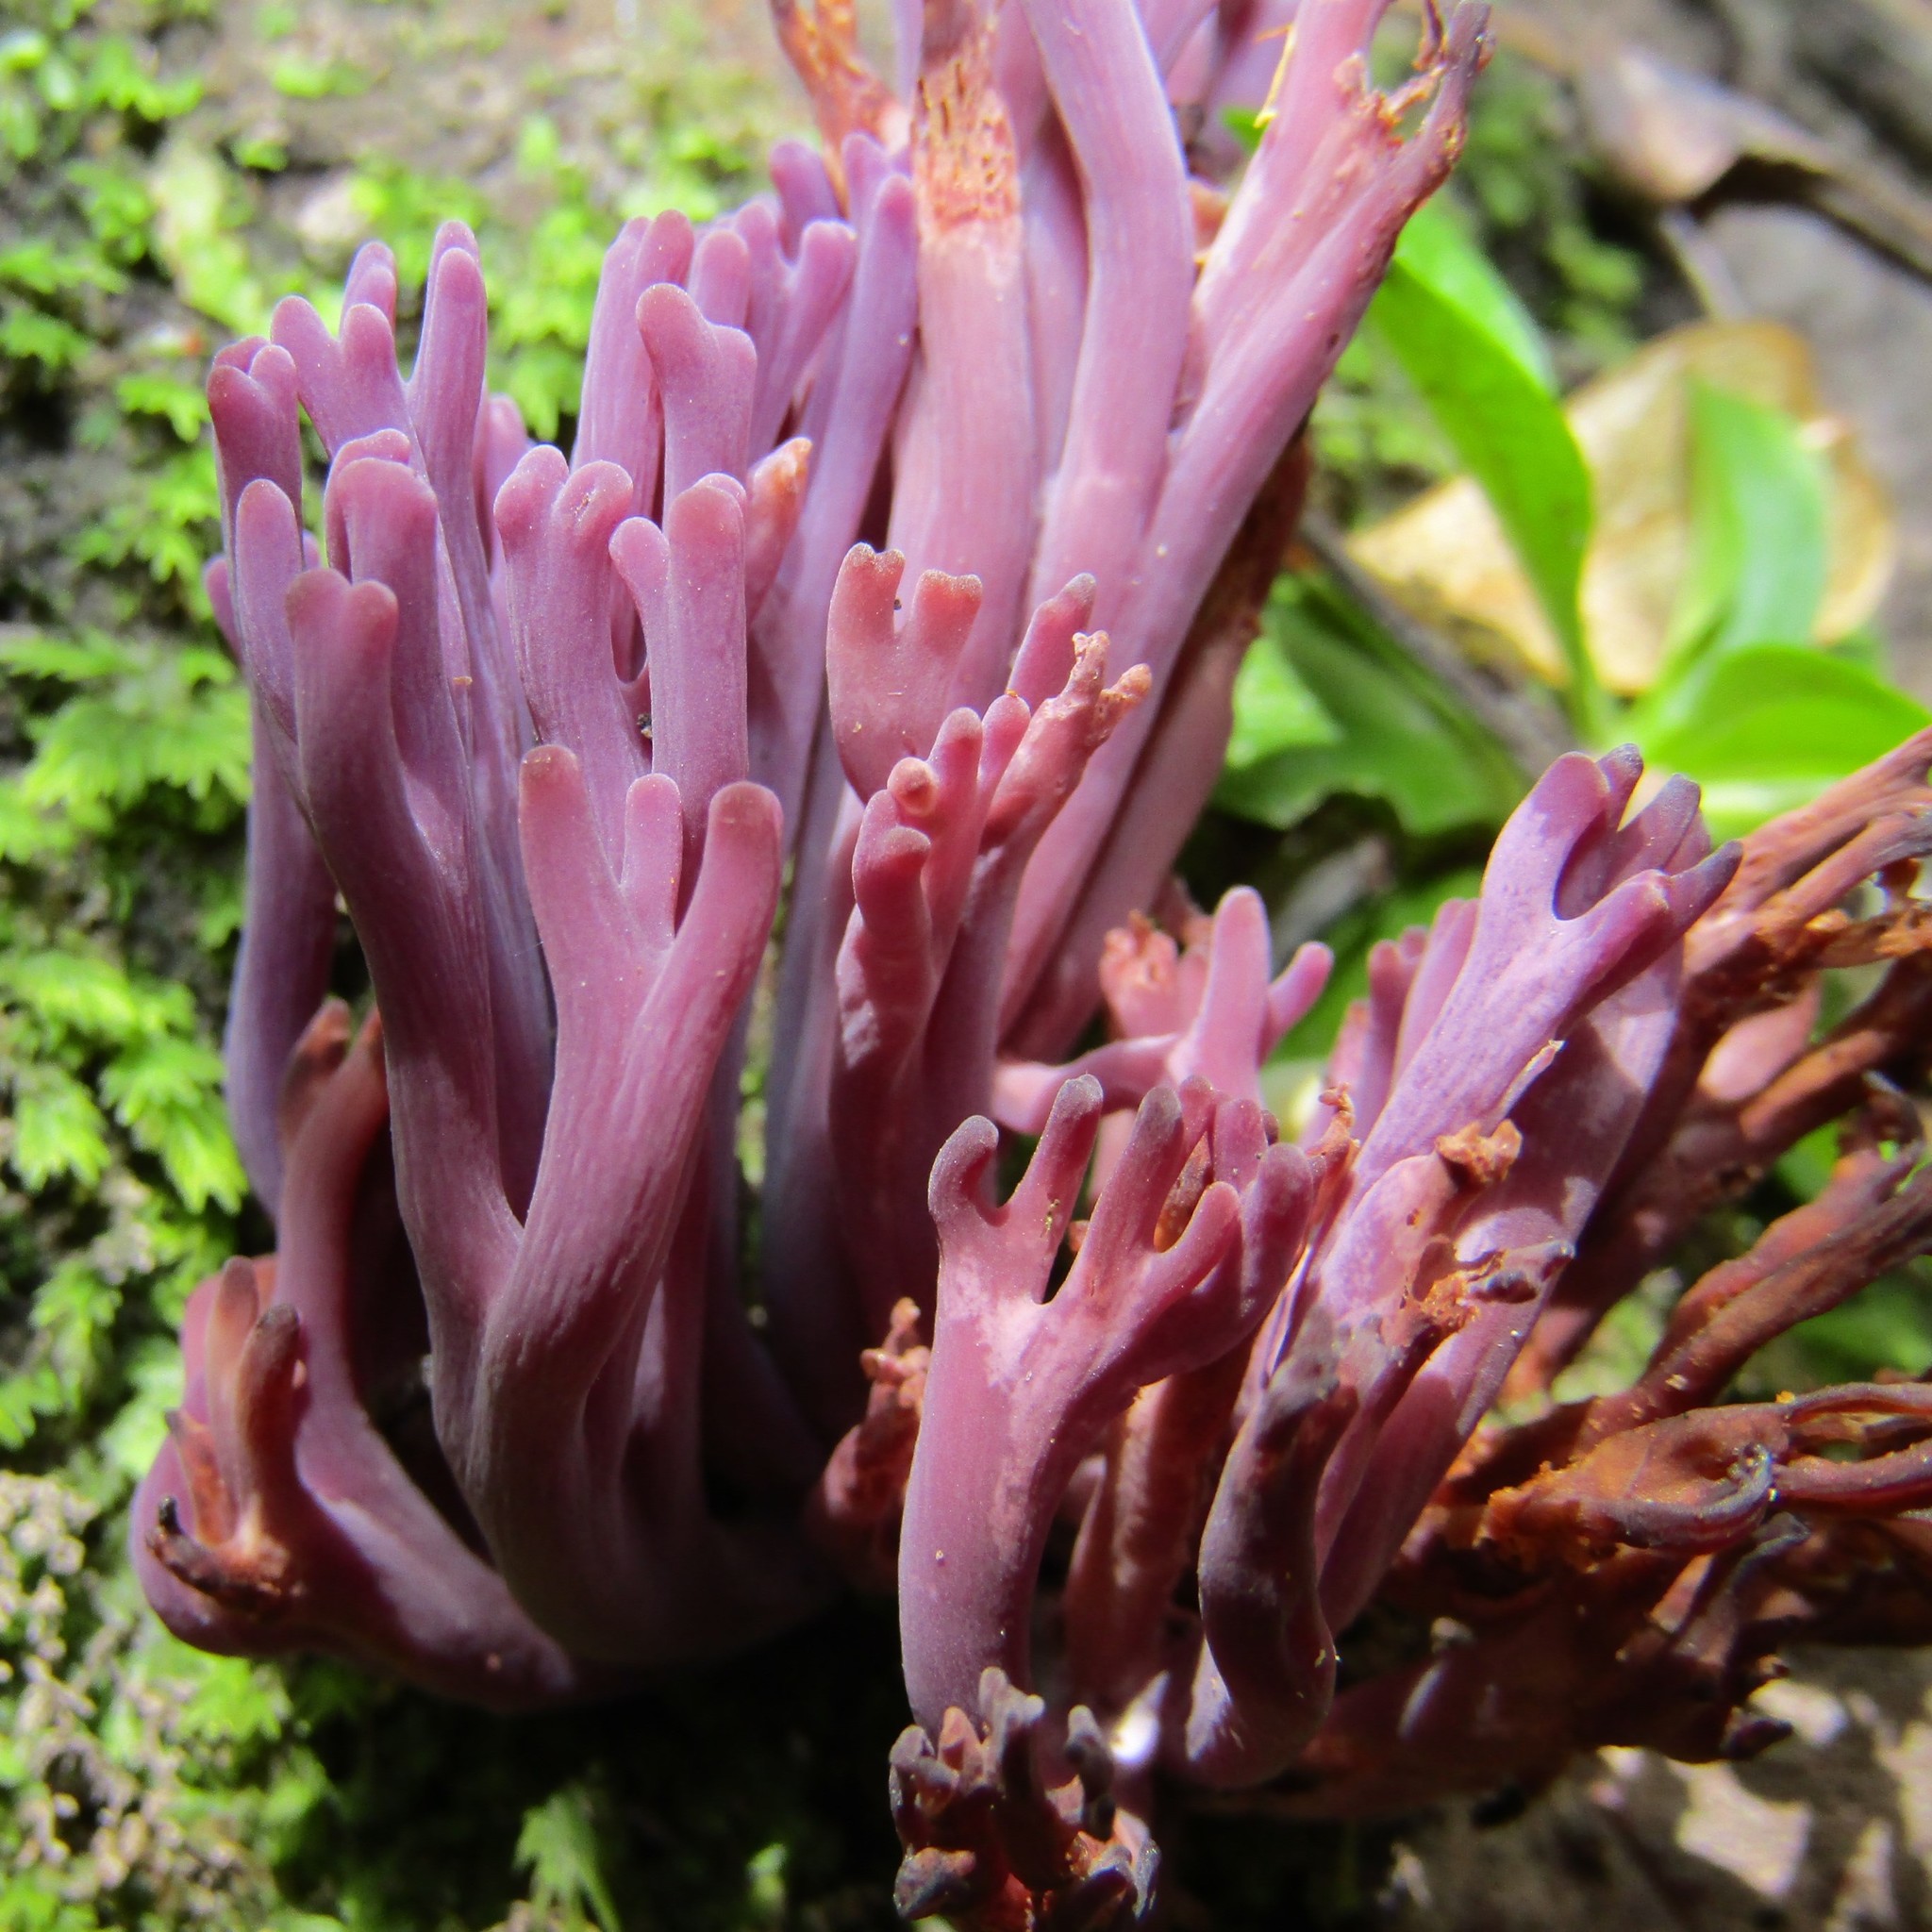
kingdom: Fungi
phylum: Basidiomycota
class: Agaricomycetes
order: Agaricales
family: Clavariaceae
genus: Clavaria
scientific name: Clavaria zollingeri
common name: Violet coral
